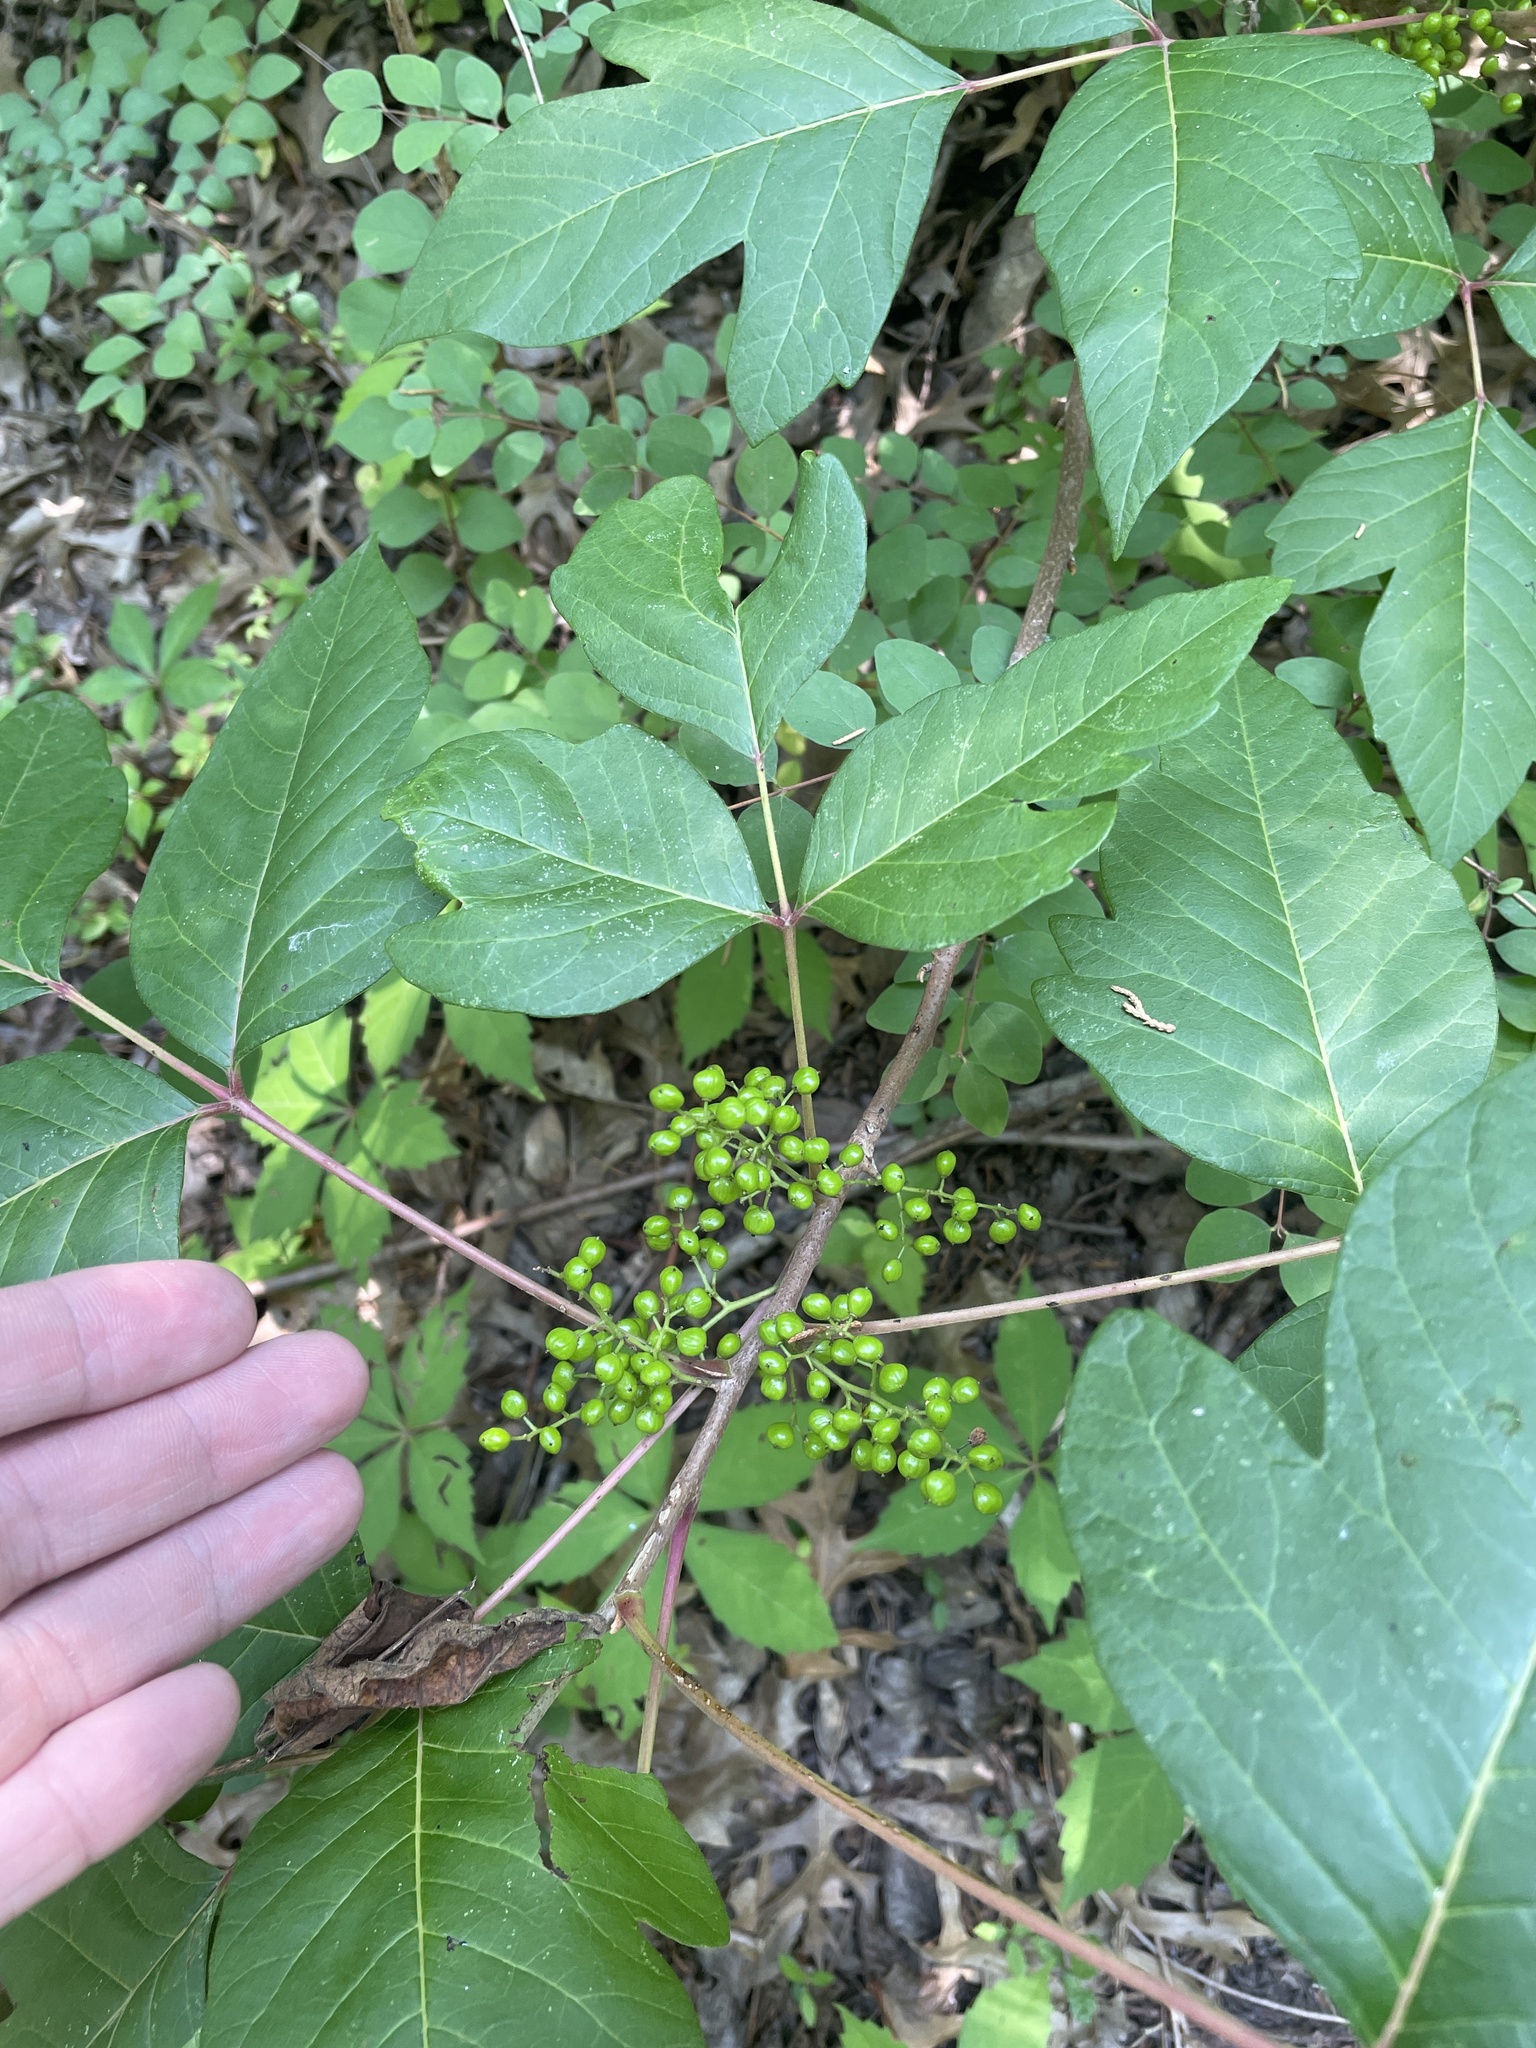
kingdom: Plantae
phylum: Tracheophyta
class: Magnoliopsida
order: Sapindales
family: Anacardiaceae
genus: Toxicodendron
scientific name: Toxicodendron radicans
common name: Poison ivy
